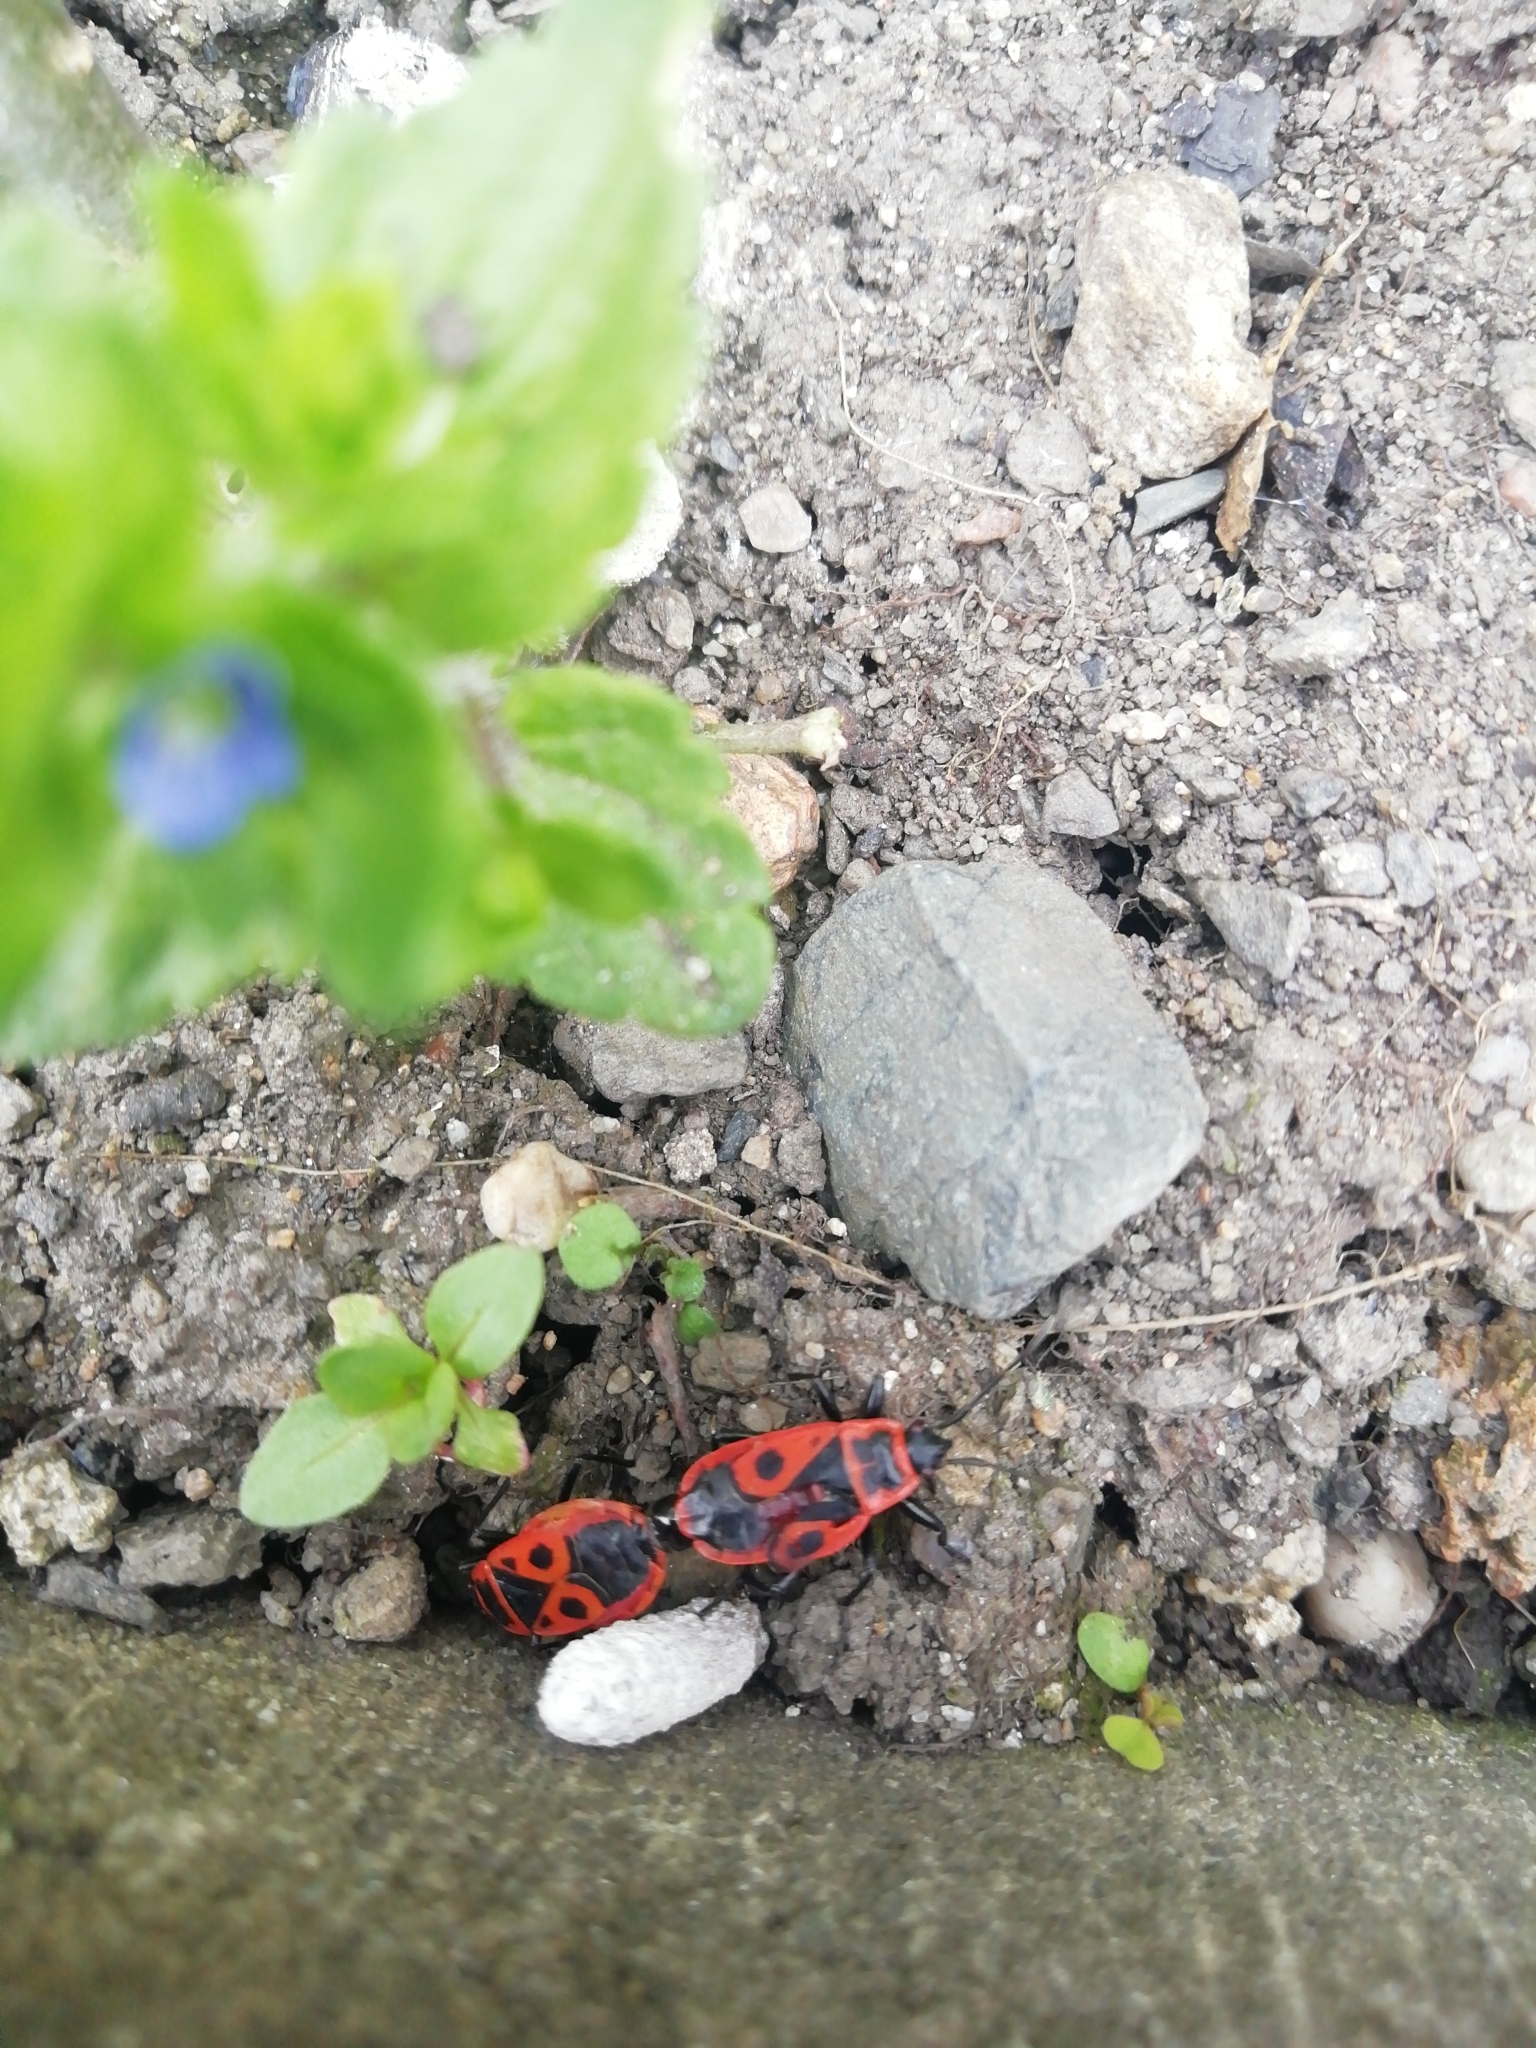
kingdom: Animalia
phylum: Arthropoda
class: Insecta
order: Hemiptera
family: Pyrrhocoridae
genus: Pyrrhocoris
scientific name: Pyrrhocoris apterus
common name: Firebug
